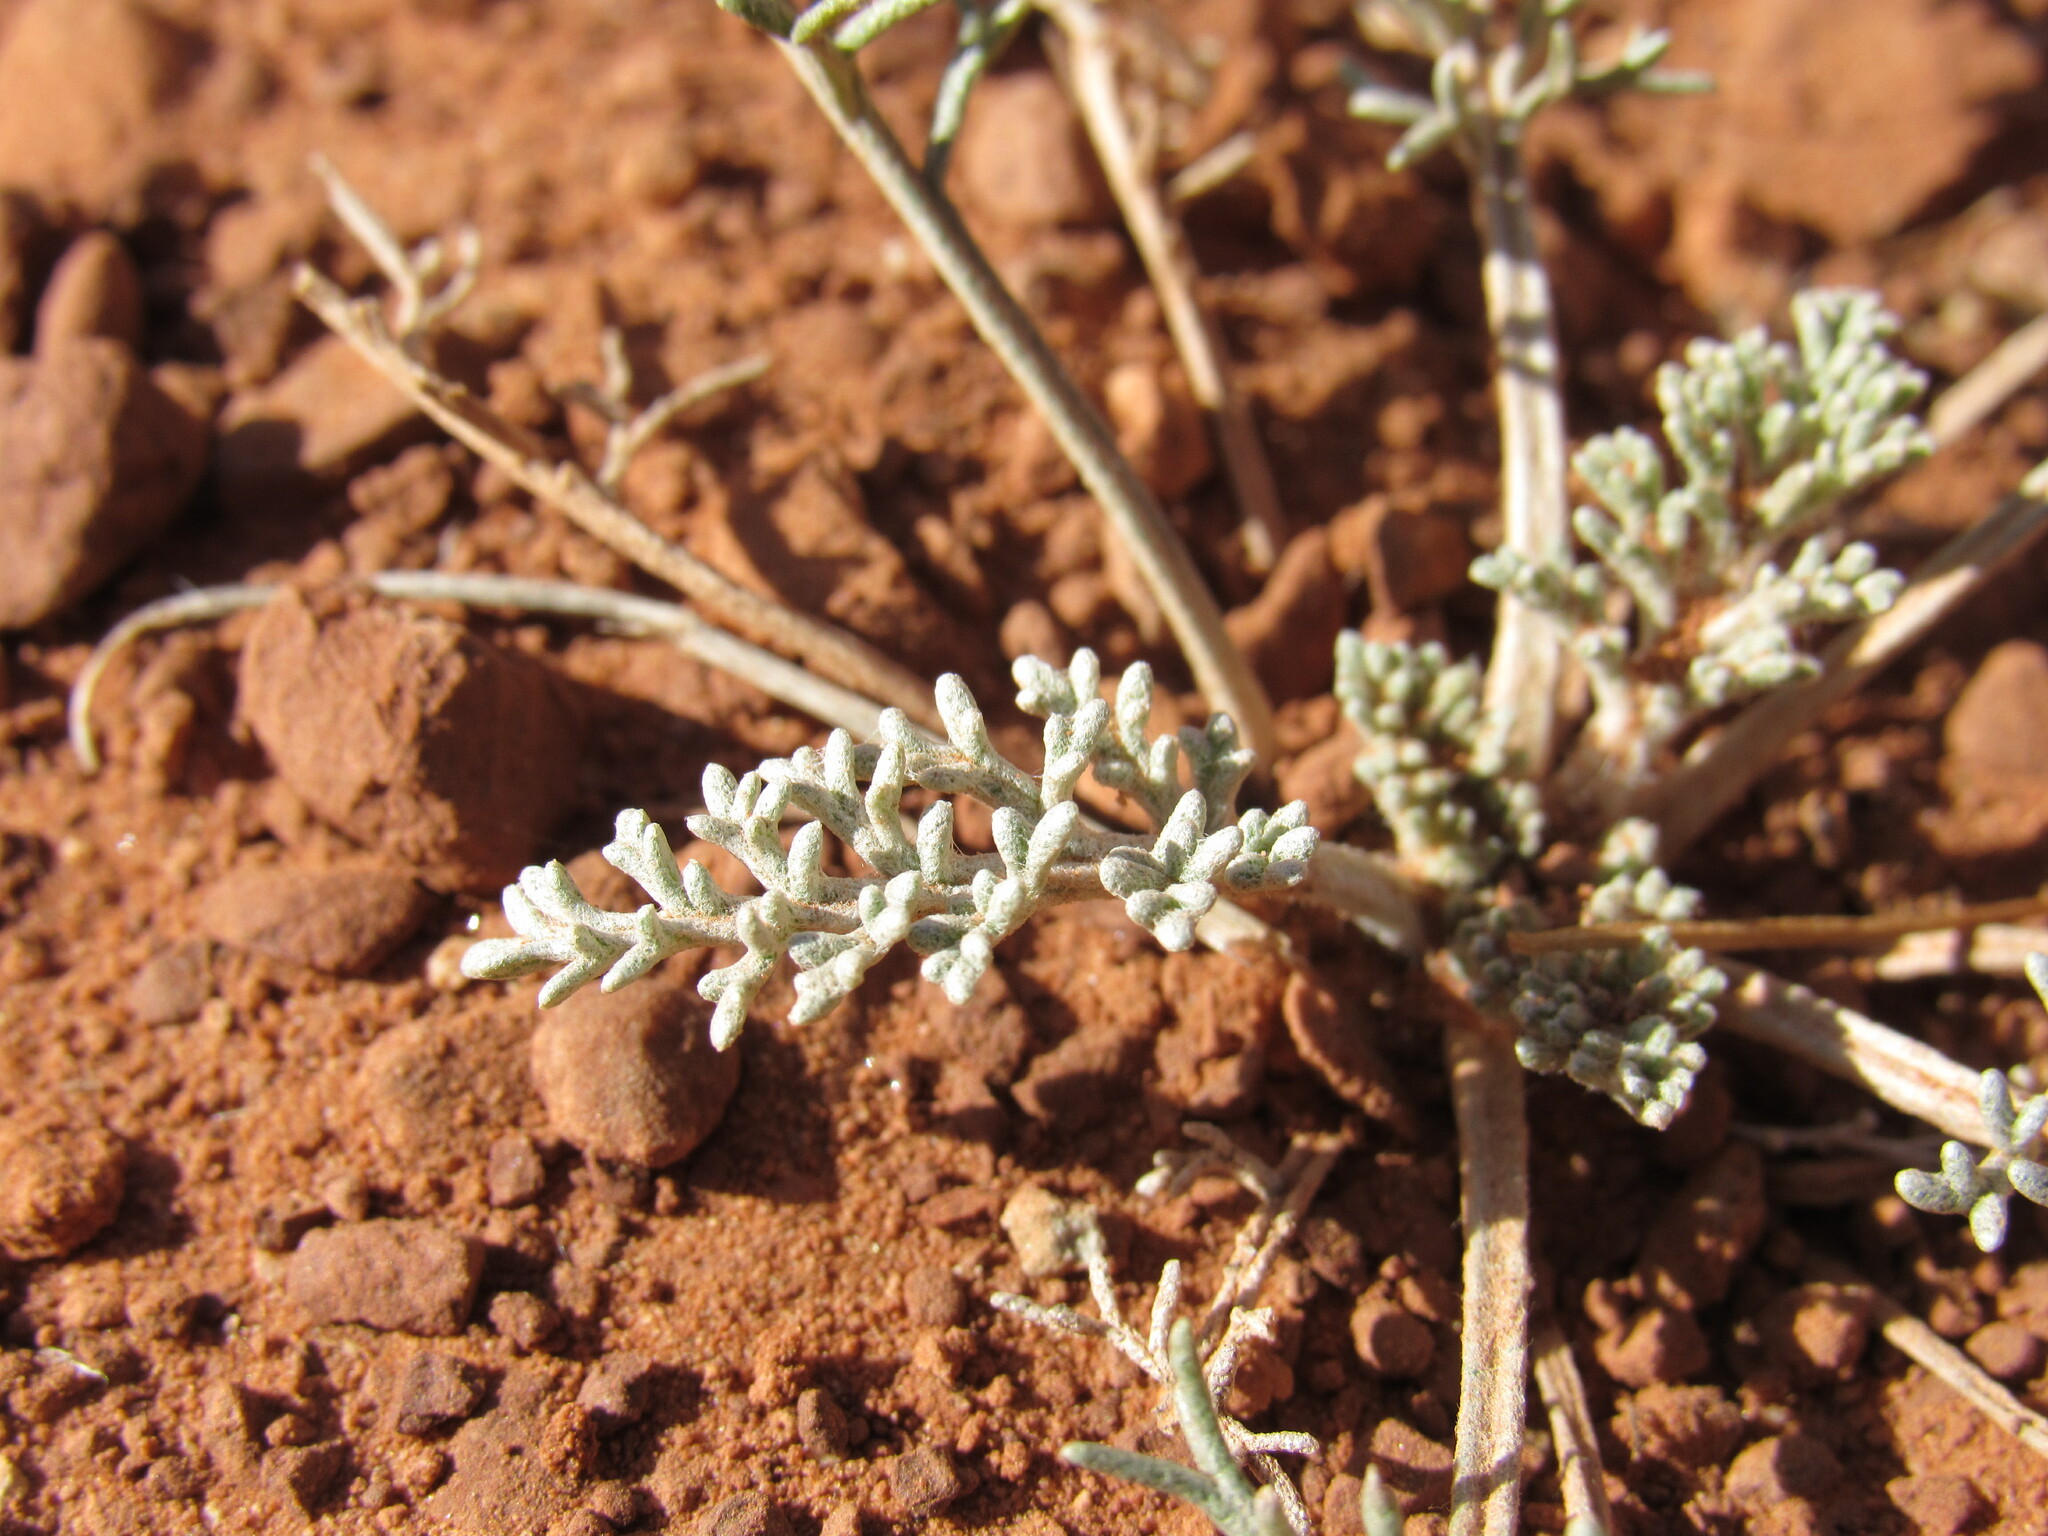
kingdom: Plantae
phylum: Tracheophyta
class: Magnoliopsida
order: Asterales
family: Asteraceae
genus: Hymenopappus
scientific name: Hymenopappus filifolius
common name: Columbia cutleaf
